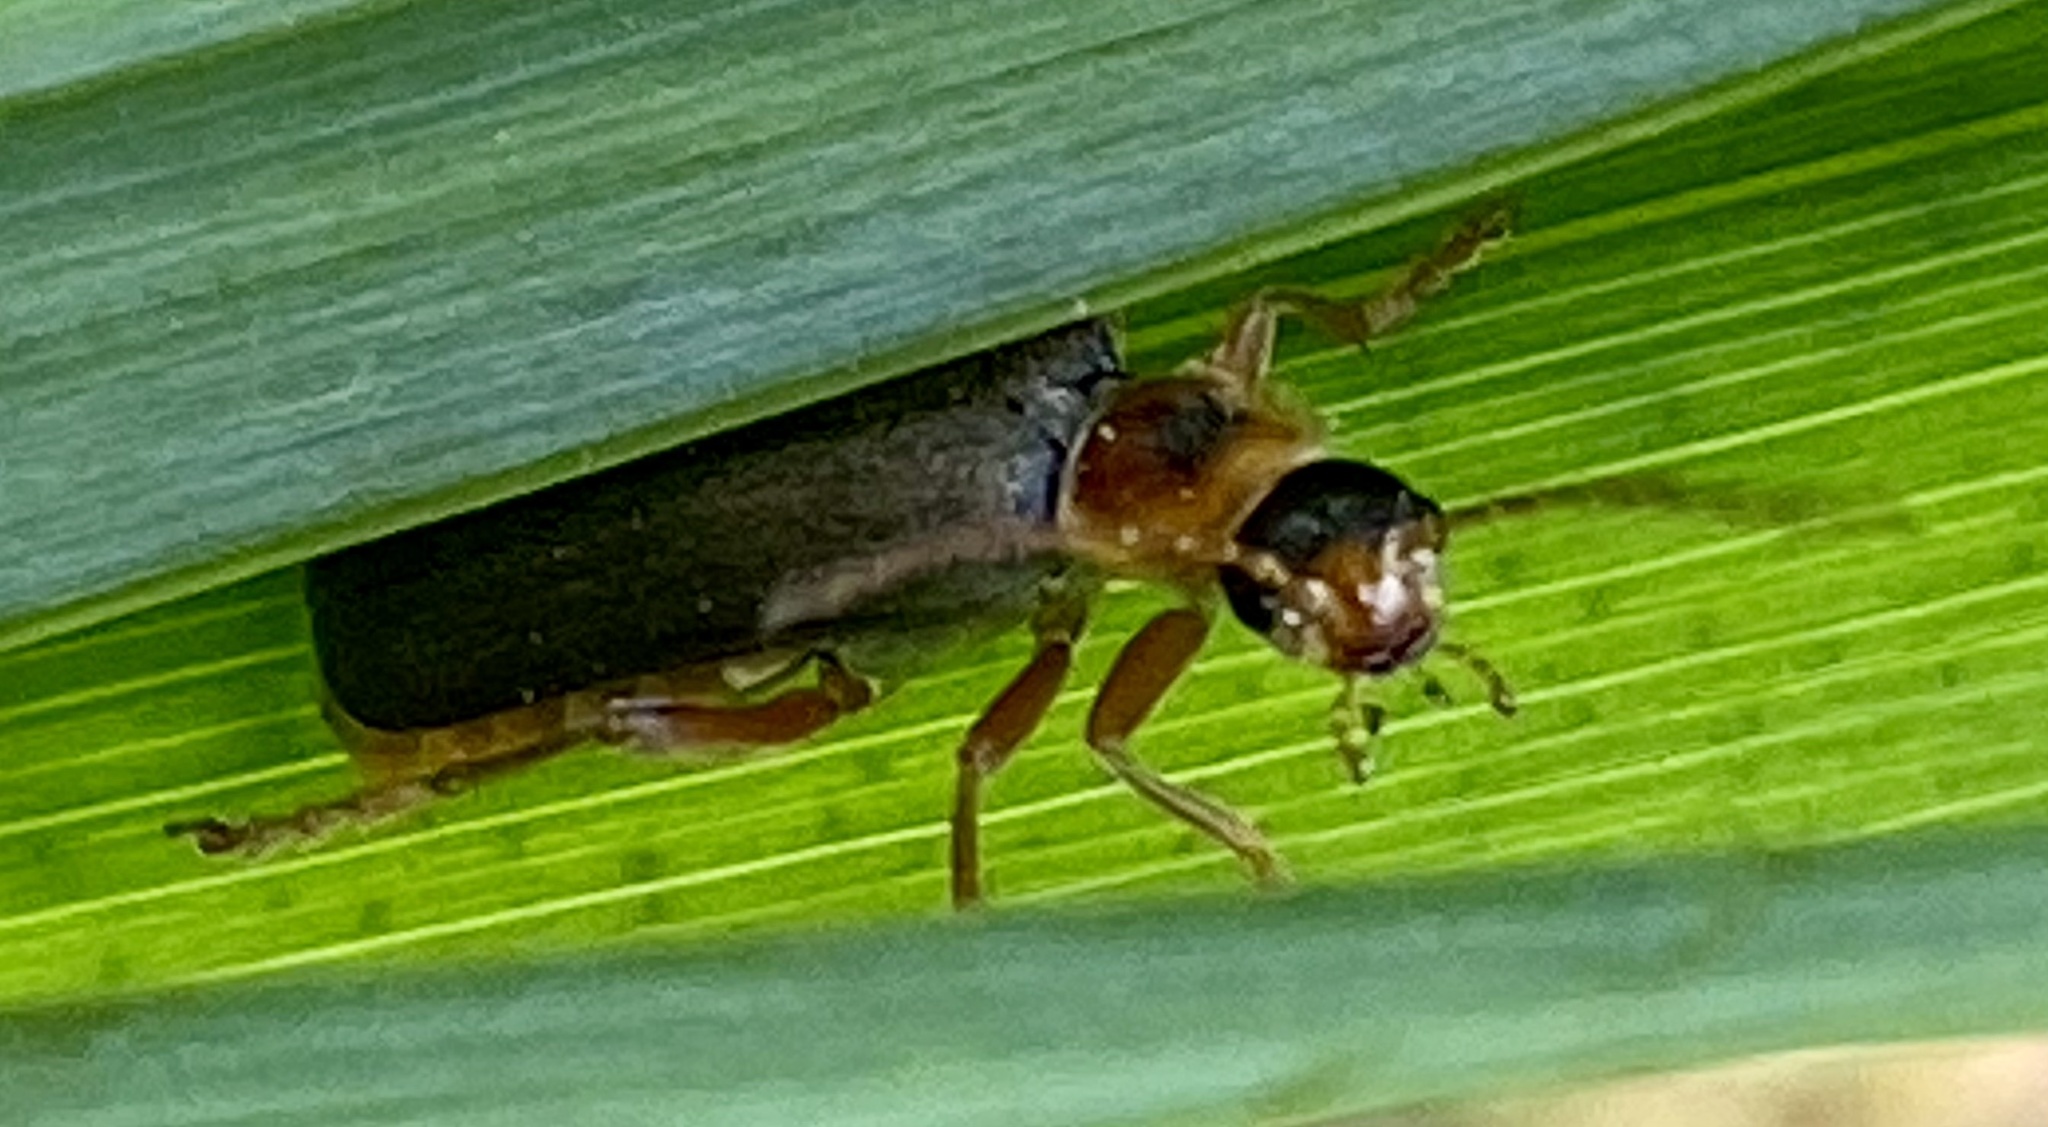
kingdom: Animalia
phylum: Arthropoda
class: Insecta
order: Coleoptera
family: Cantharidae
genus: Cantharis
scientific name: Cantharis nigricans
